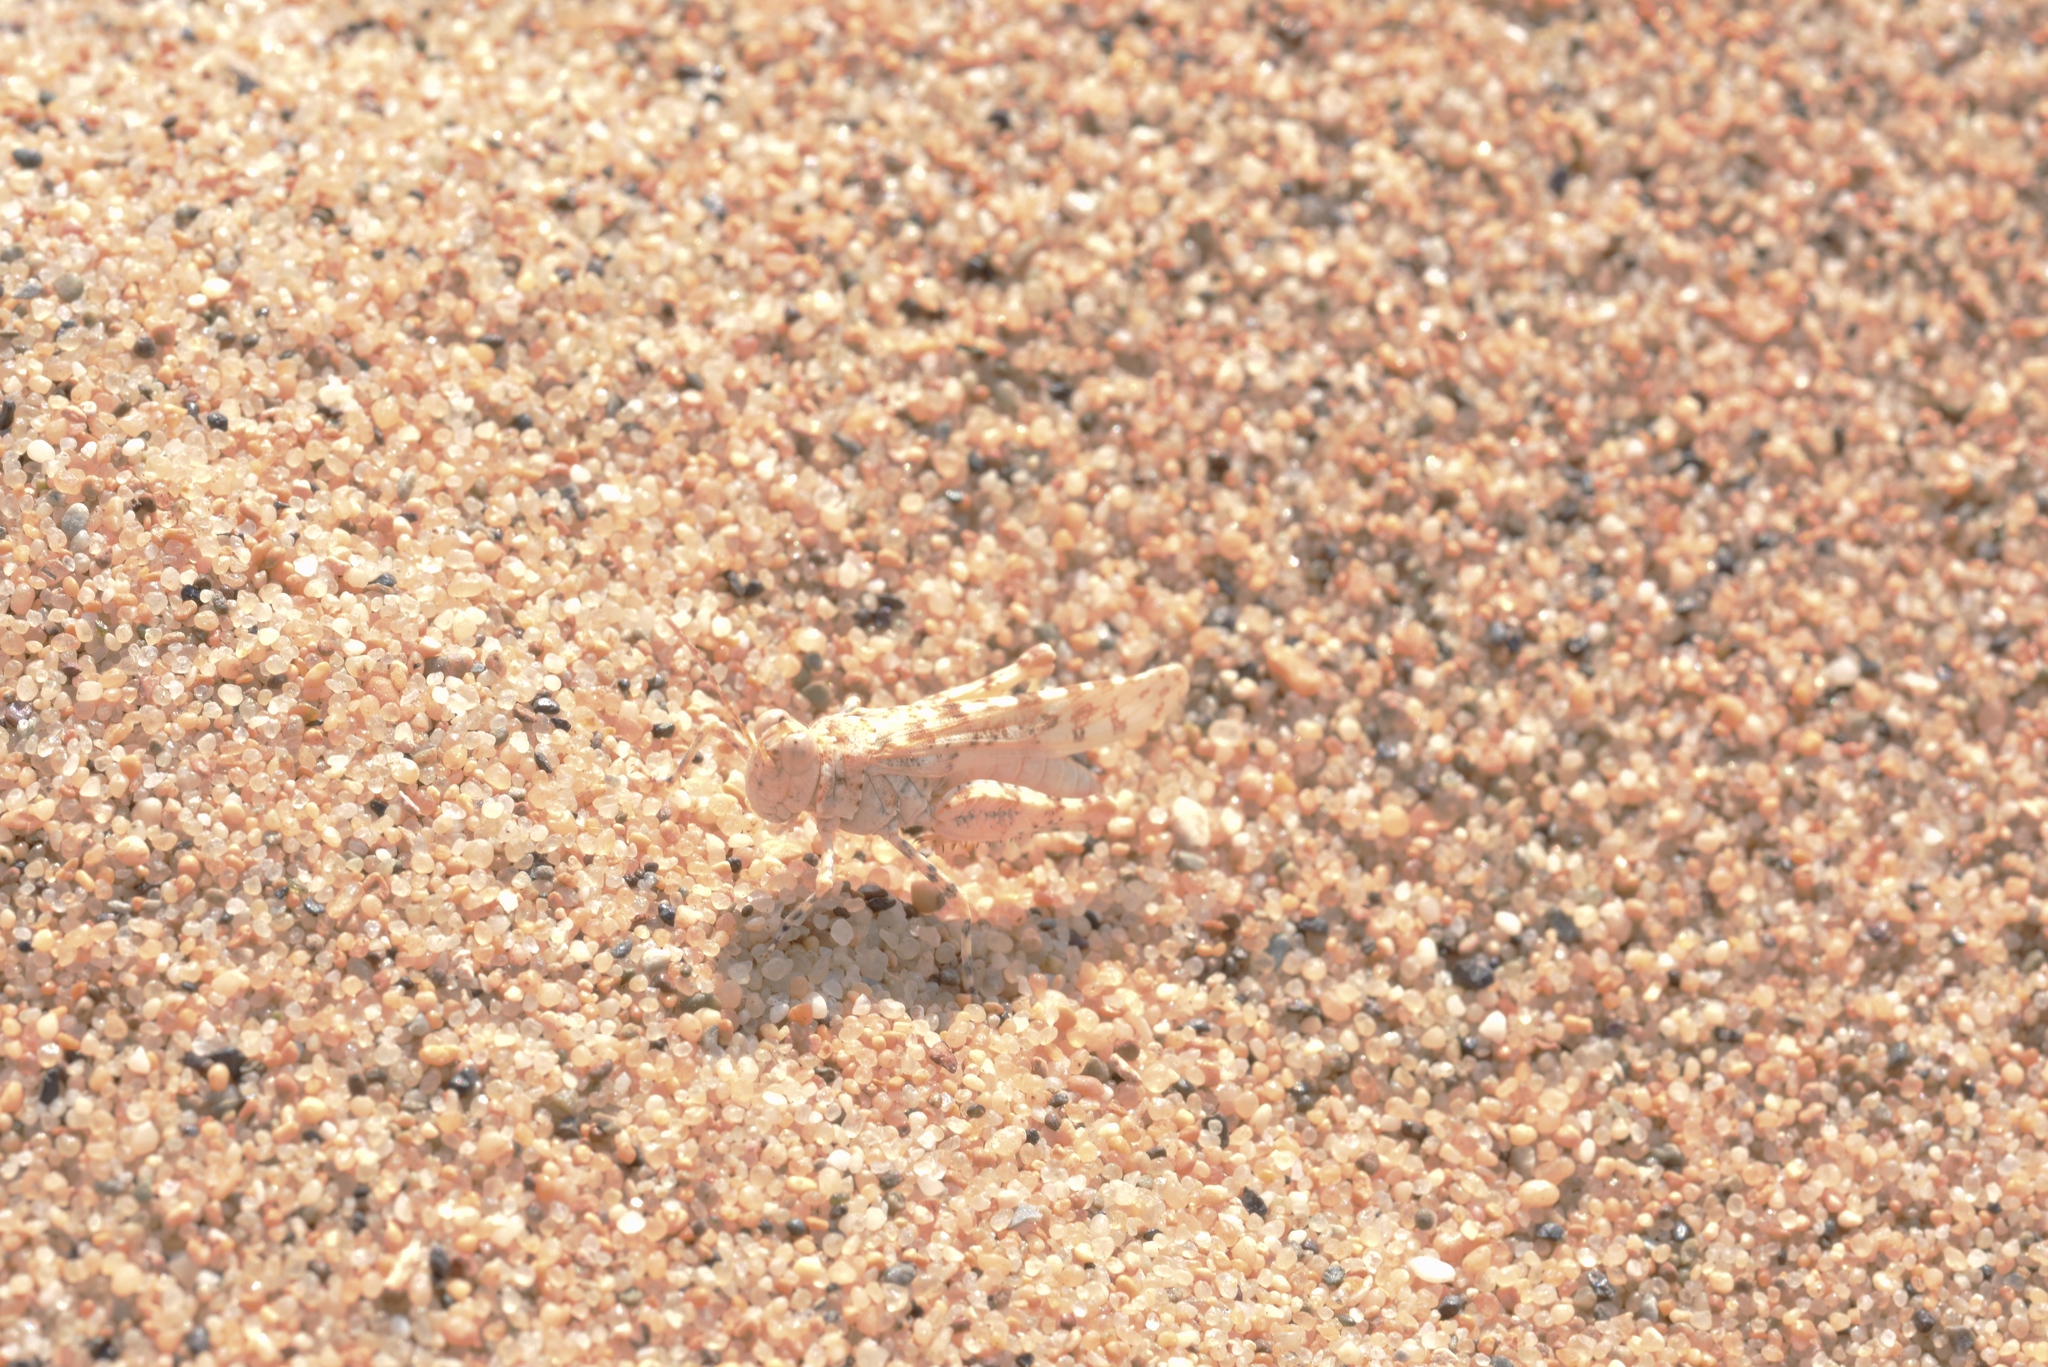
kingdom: Animalia
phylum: Arthropoda
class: Insecta
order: Orthoptera
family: Acrididae
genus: Sphingonotus
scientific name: Sphingonotus candidus
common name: Whitish sand grasshopper
